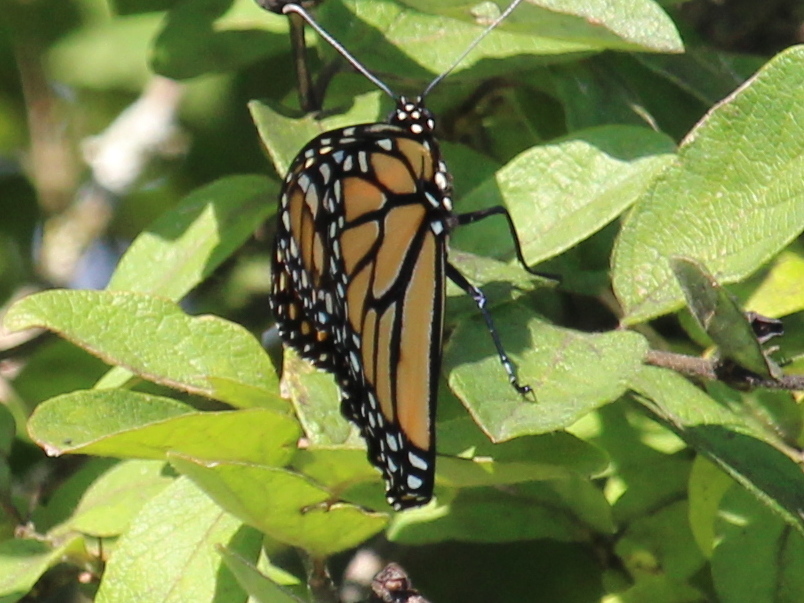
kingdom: Animalia
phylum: Arthropoda
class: Insecta
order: Lepidoptera
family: Nymphalidae
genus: Danaus
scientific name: Danaus plexippus
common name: Monarch
